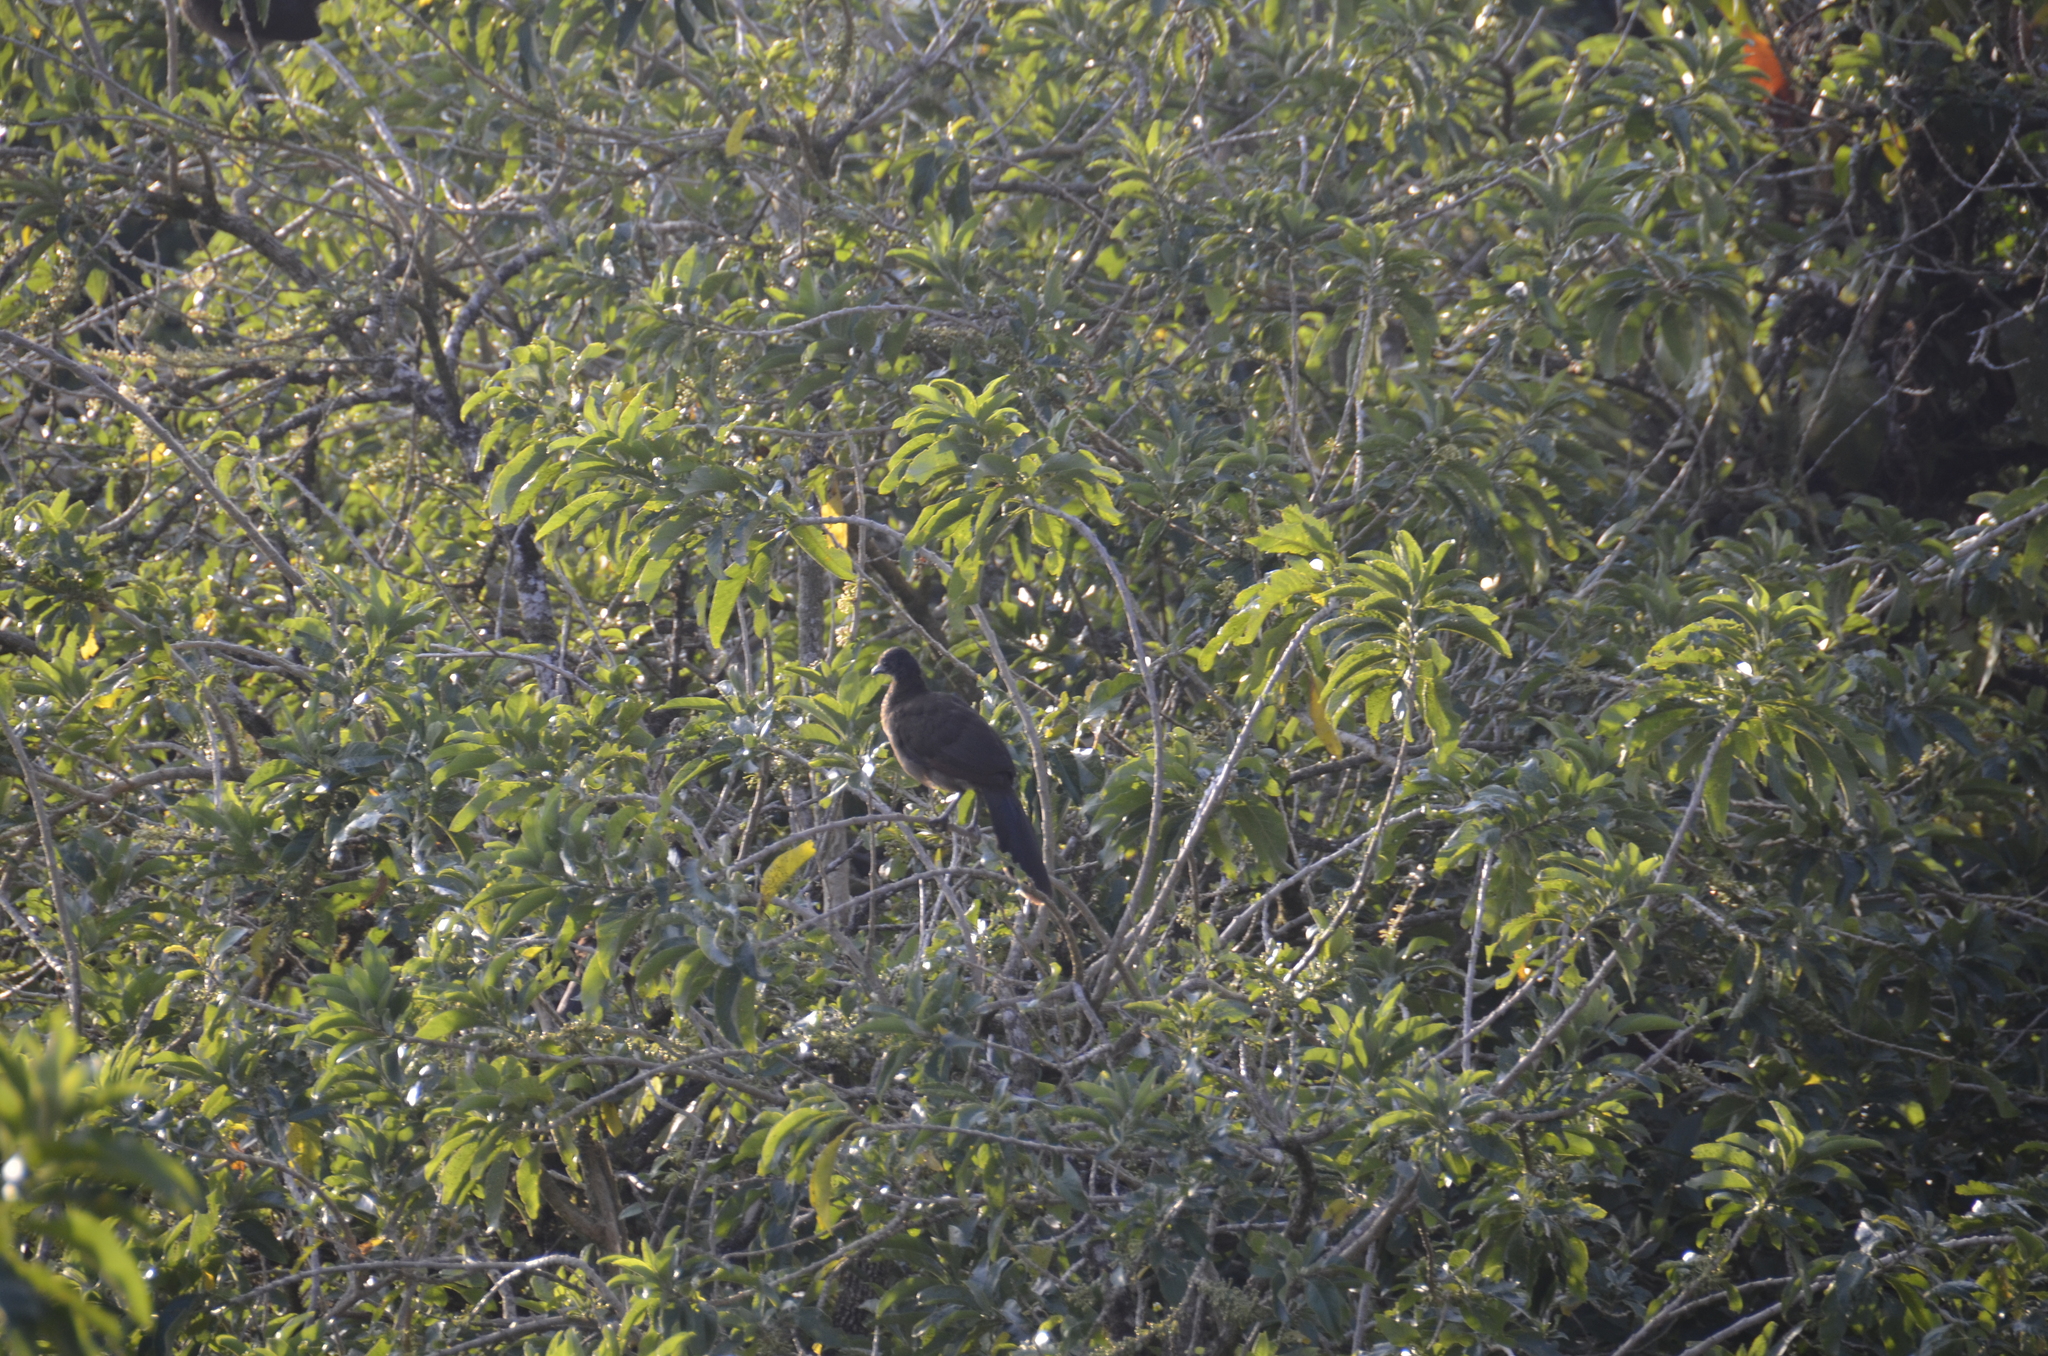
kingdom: Animalia
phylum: Chordata
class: Aves
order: Galliformes
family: Cracidae
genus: Ortalis
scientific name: Ortalis cinereiceps
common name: Grey-headed chachalaca
